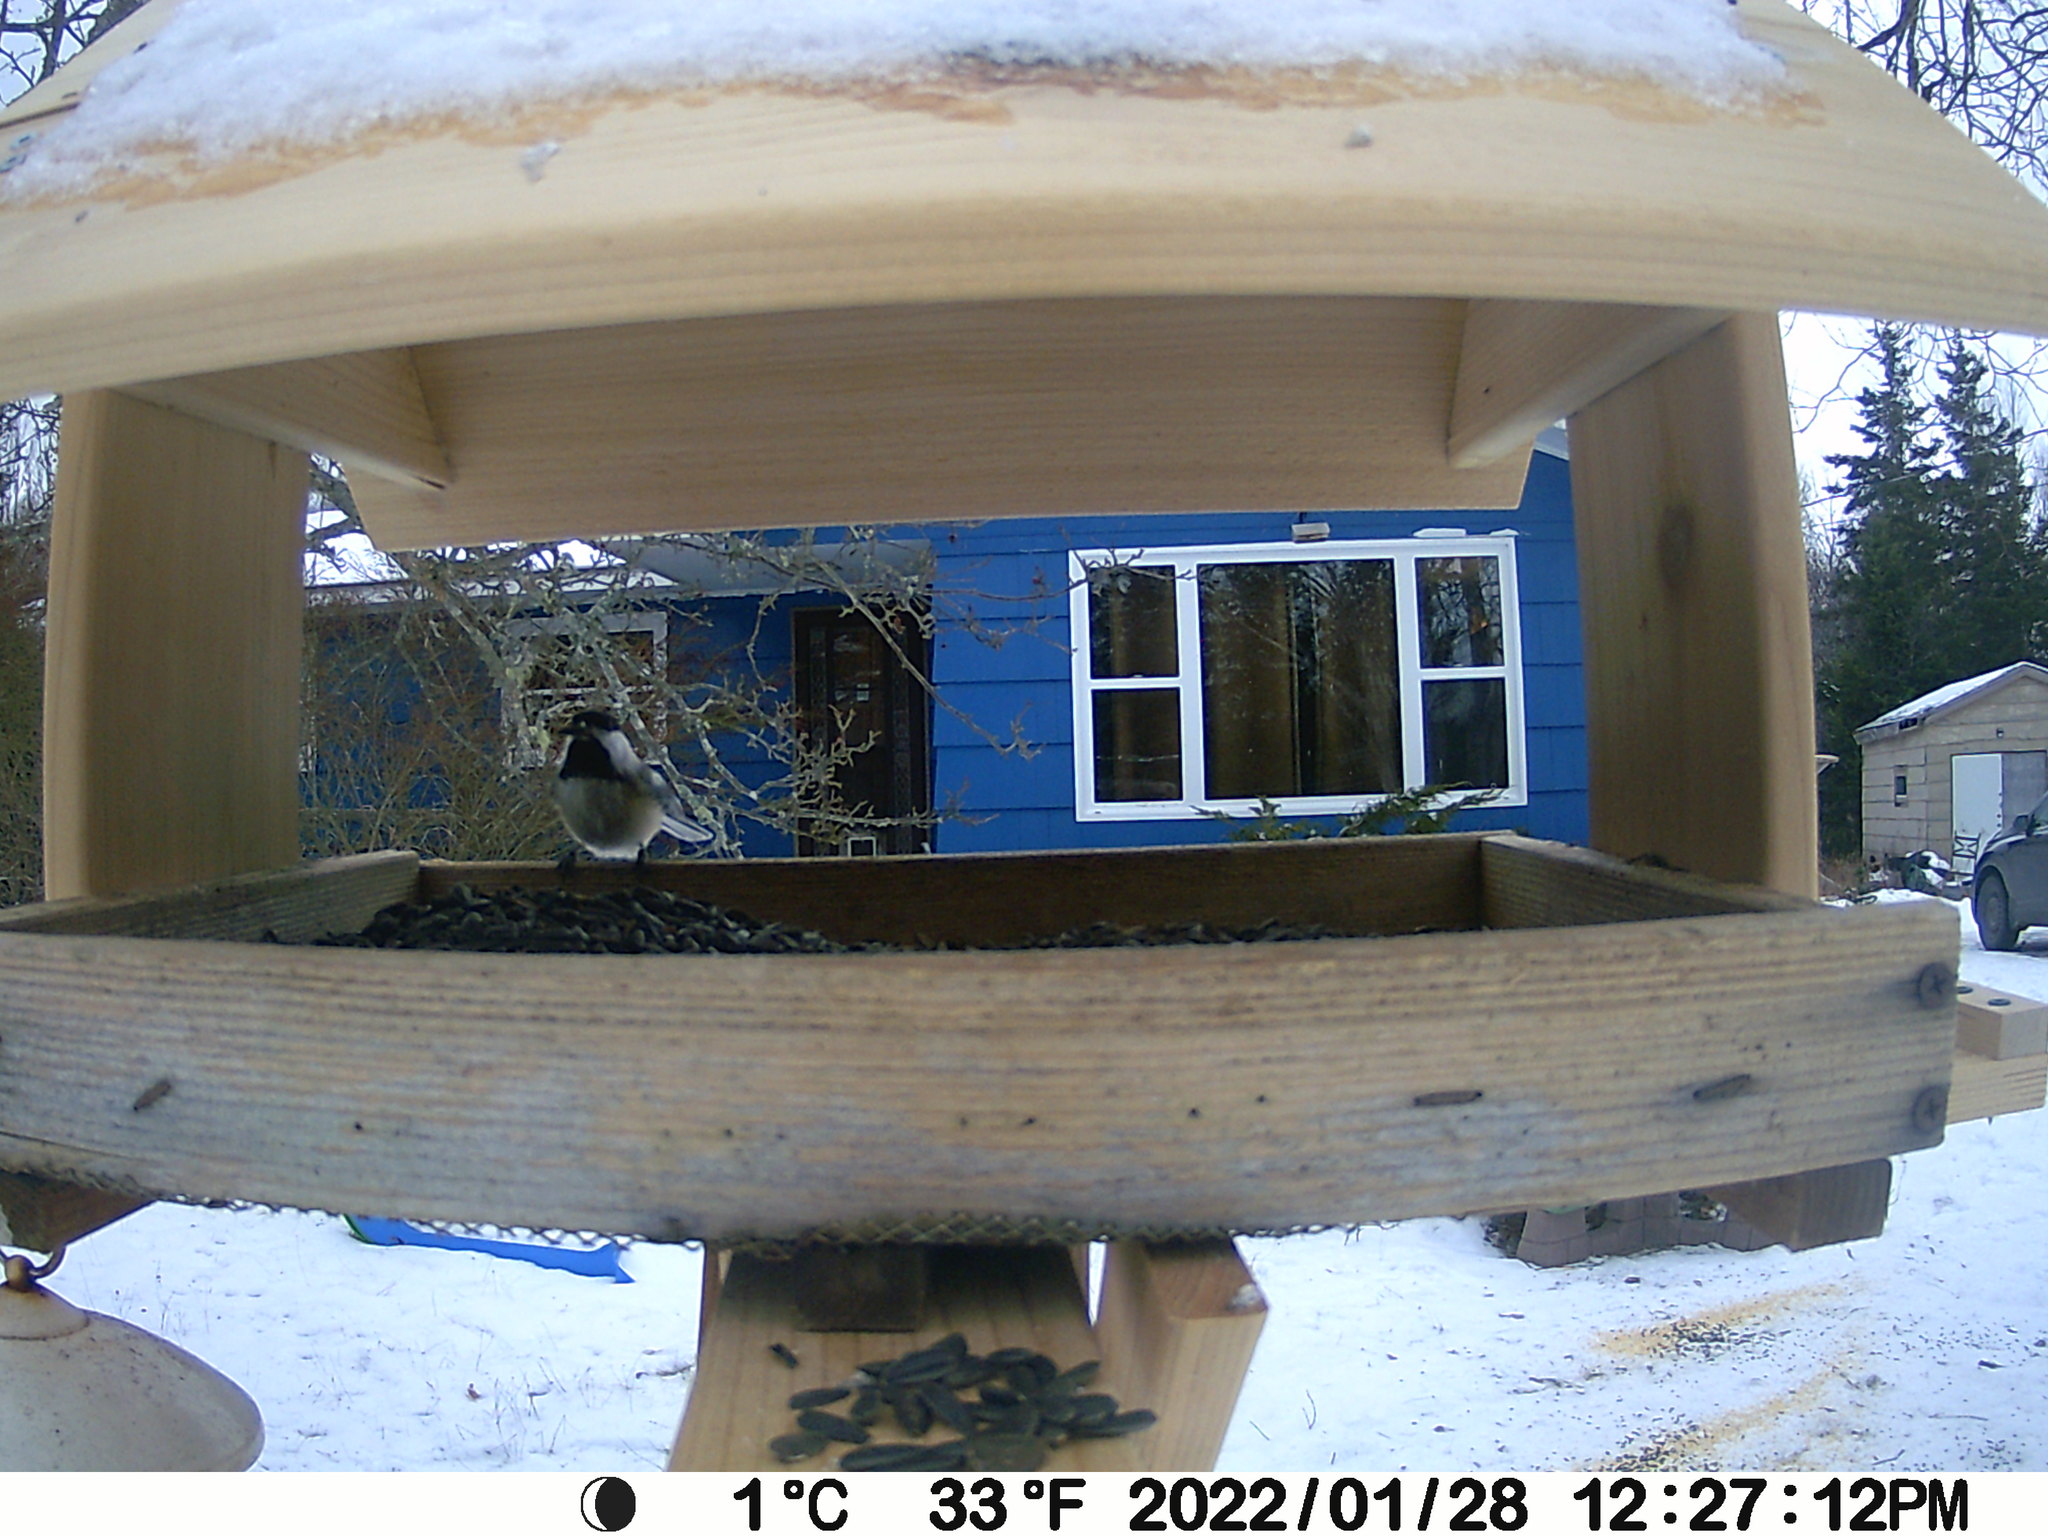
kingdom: Animalia
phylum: Chordata
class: Aves
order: Passeriformes
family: Paridae
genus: Poecile
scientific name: Poecile atricapillus
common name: Black-capped chickadee
